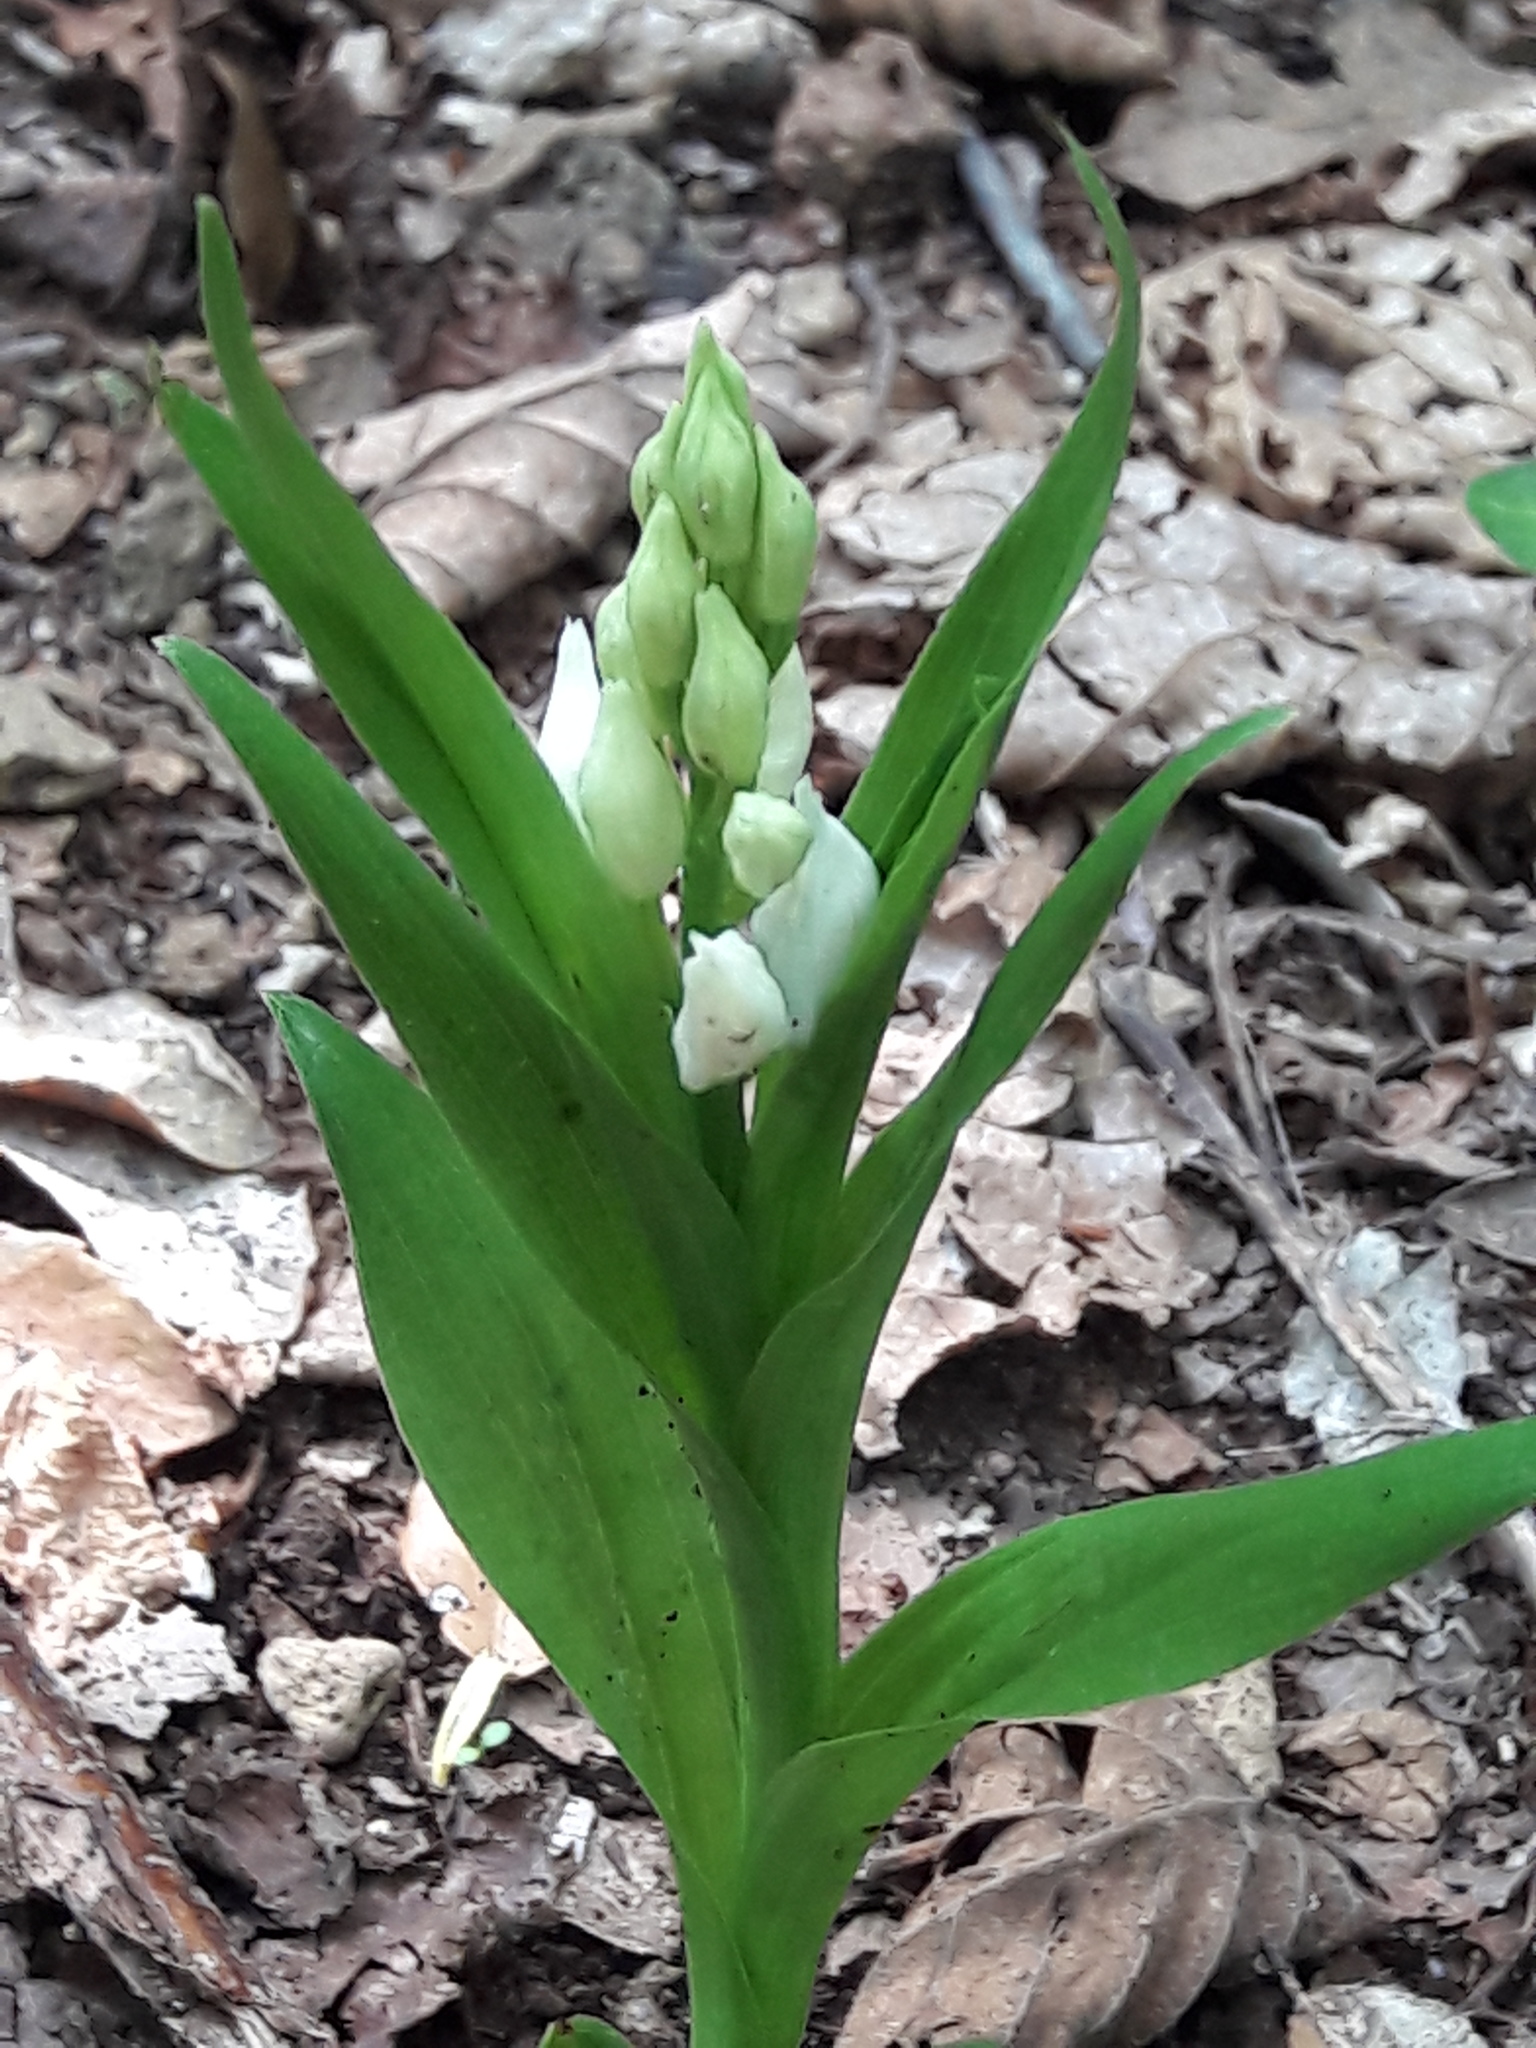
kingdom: Plantae
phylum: Tracheophyta
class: Liliopsida
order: Asparagales
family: Orchidaceae
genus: Cephalanthera
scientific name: Cephalanthera longifolia
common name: Narrow-leaved helleborine
